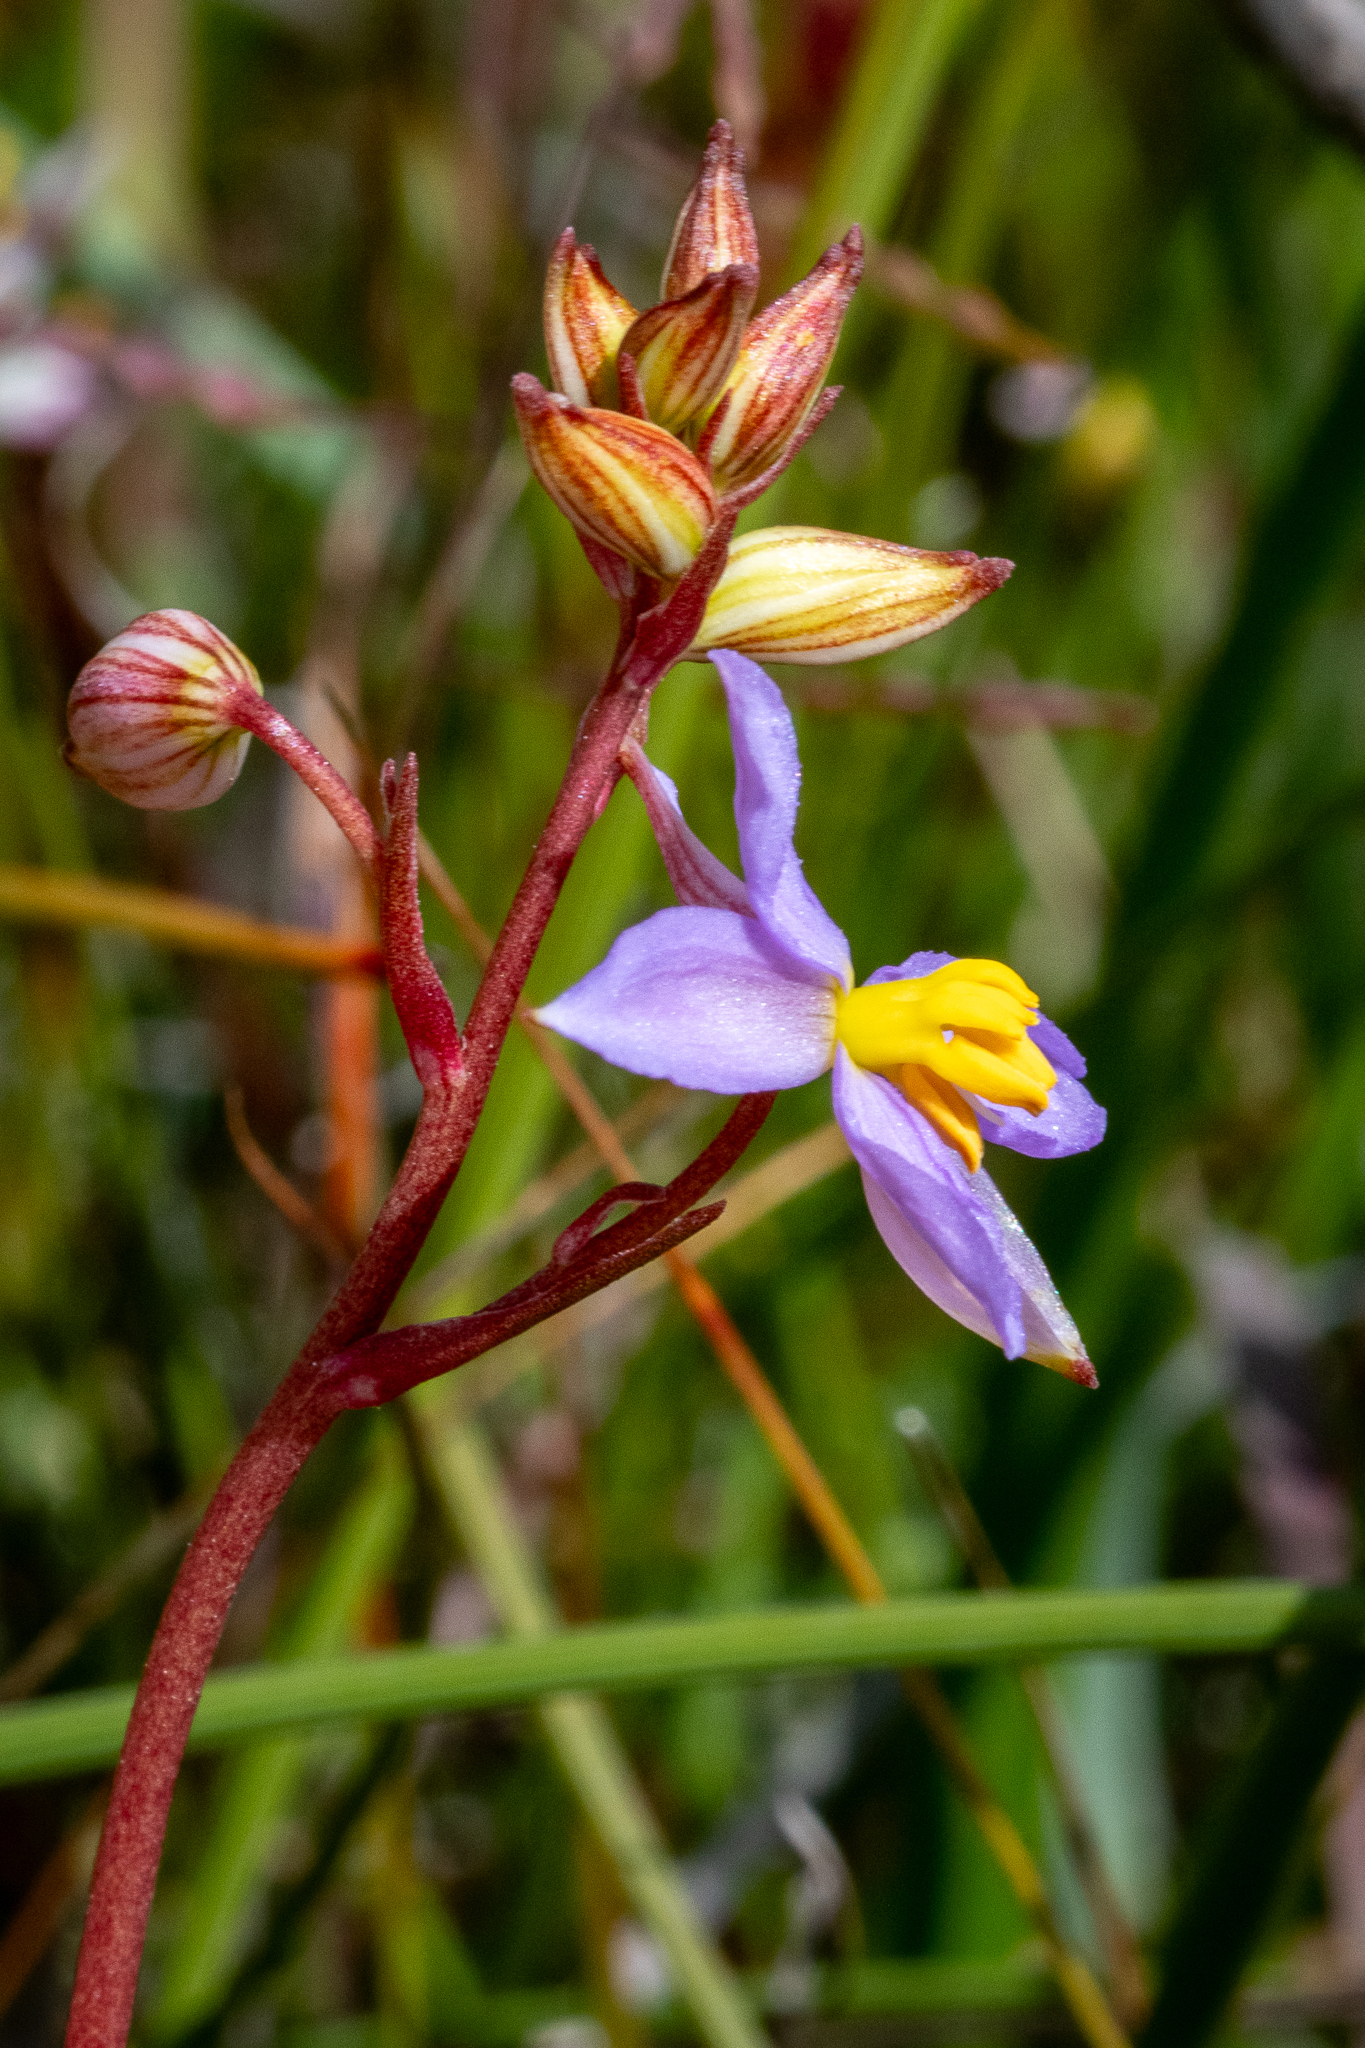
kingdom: Plantae
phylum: Tracheophyta
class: Liliopsida
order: Asparagales
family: Tecophilaeaceae
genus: Cyanella
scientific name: Cyanella hyacinthoides
